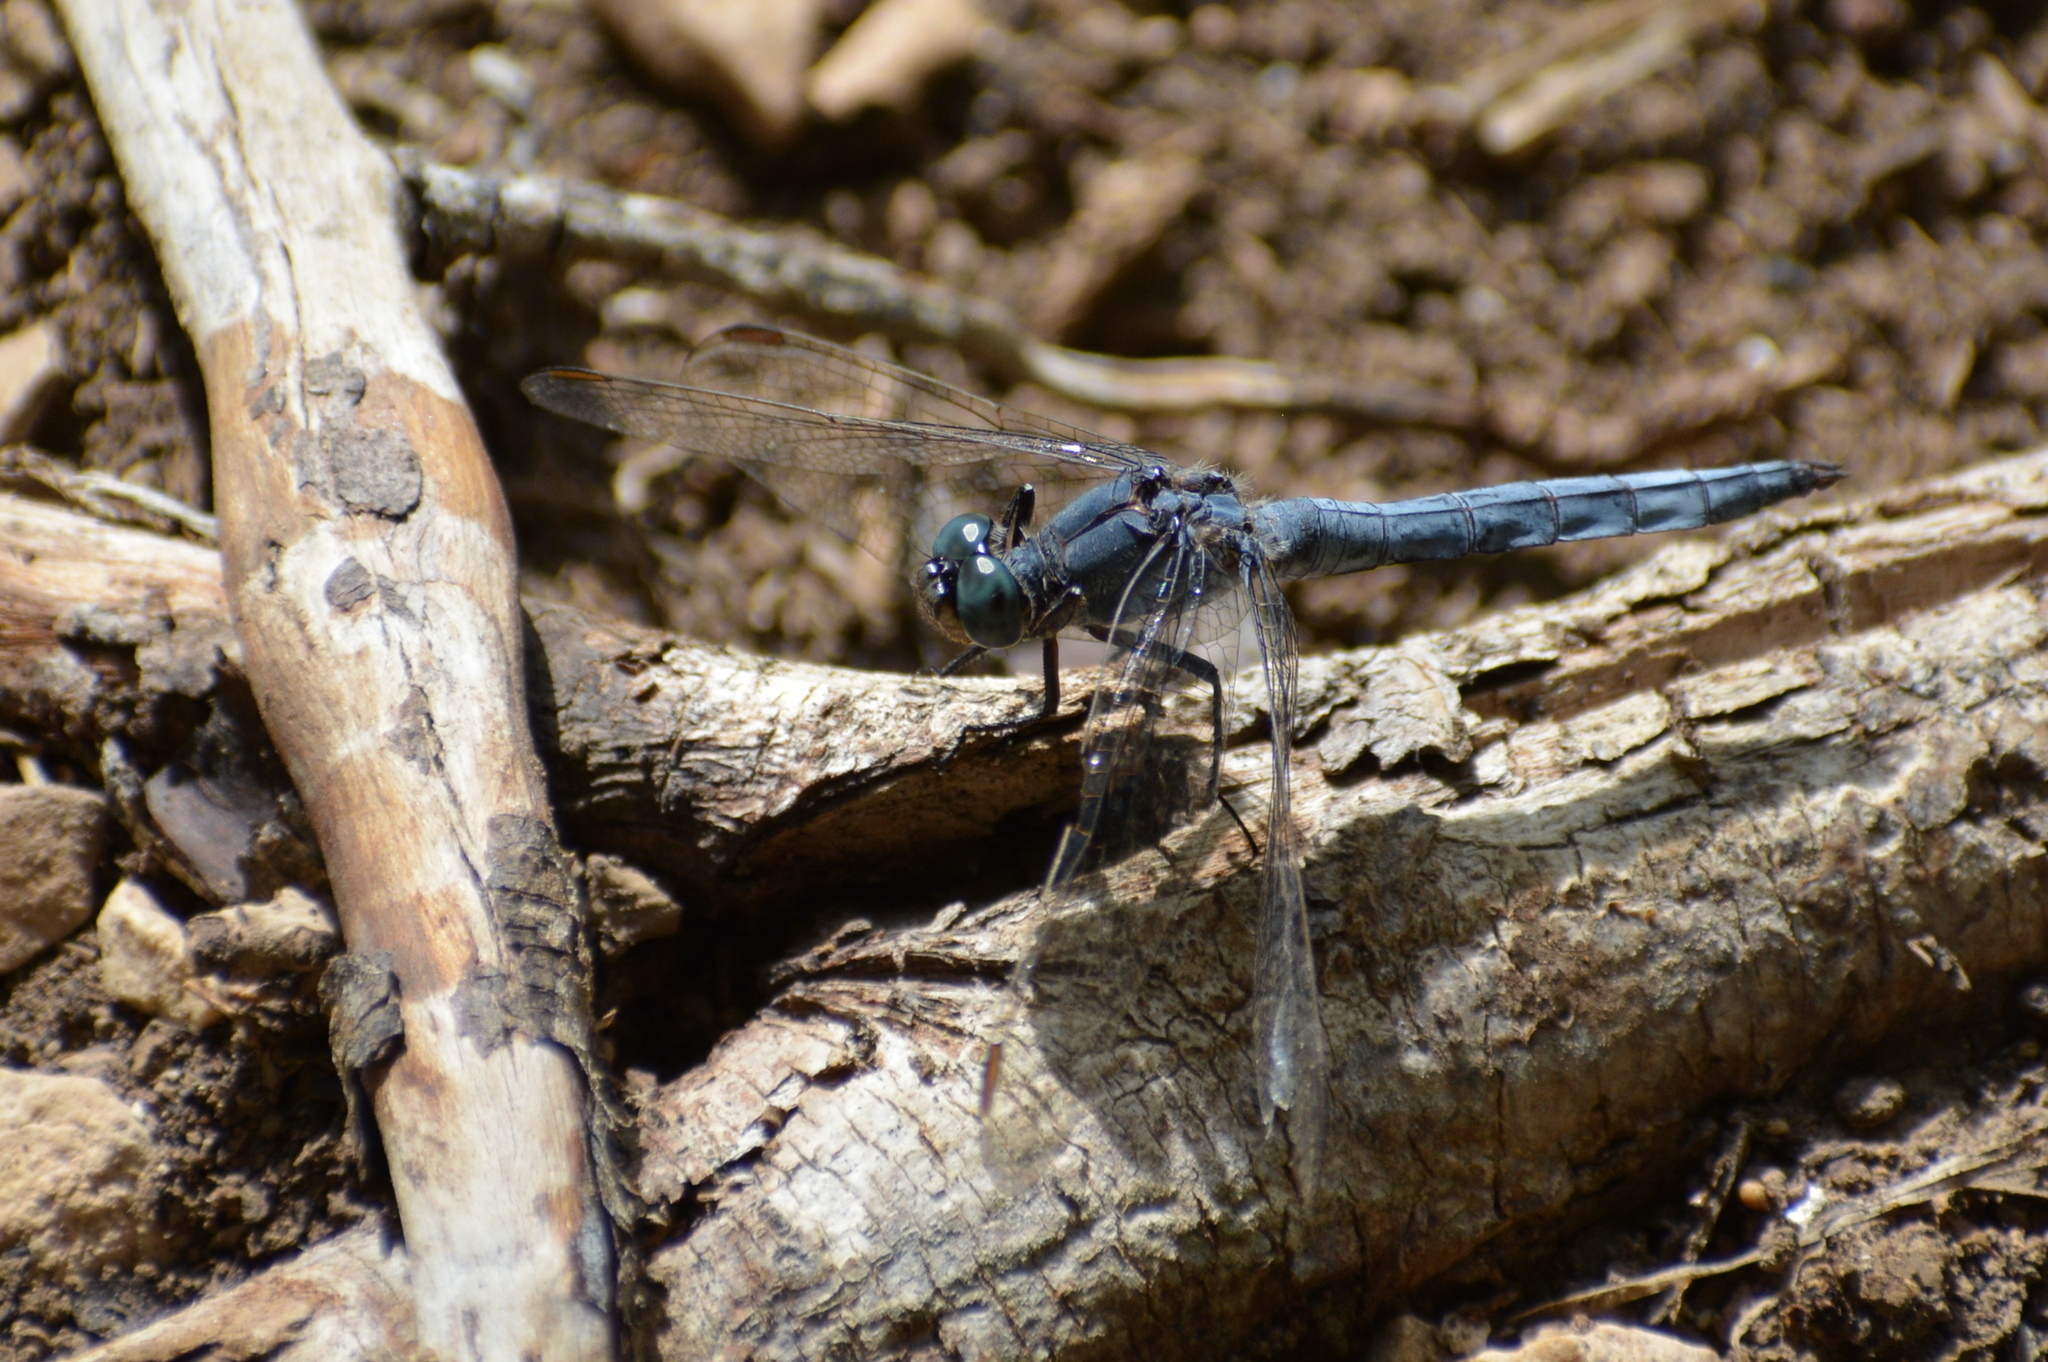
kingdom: Animalia
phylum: Arthropoda
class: Insecta
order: Odonata
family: Libellulidae
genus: Orthetrum
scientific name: Orthetrum coerulescens
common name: Keeled skimmer
